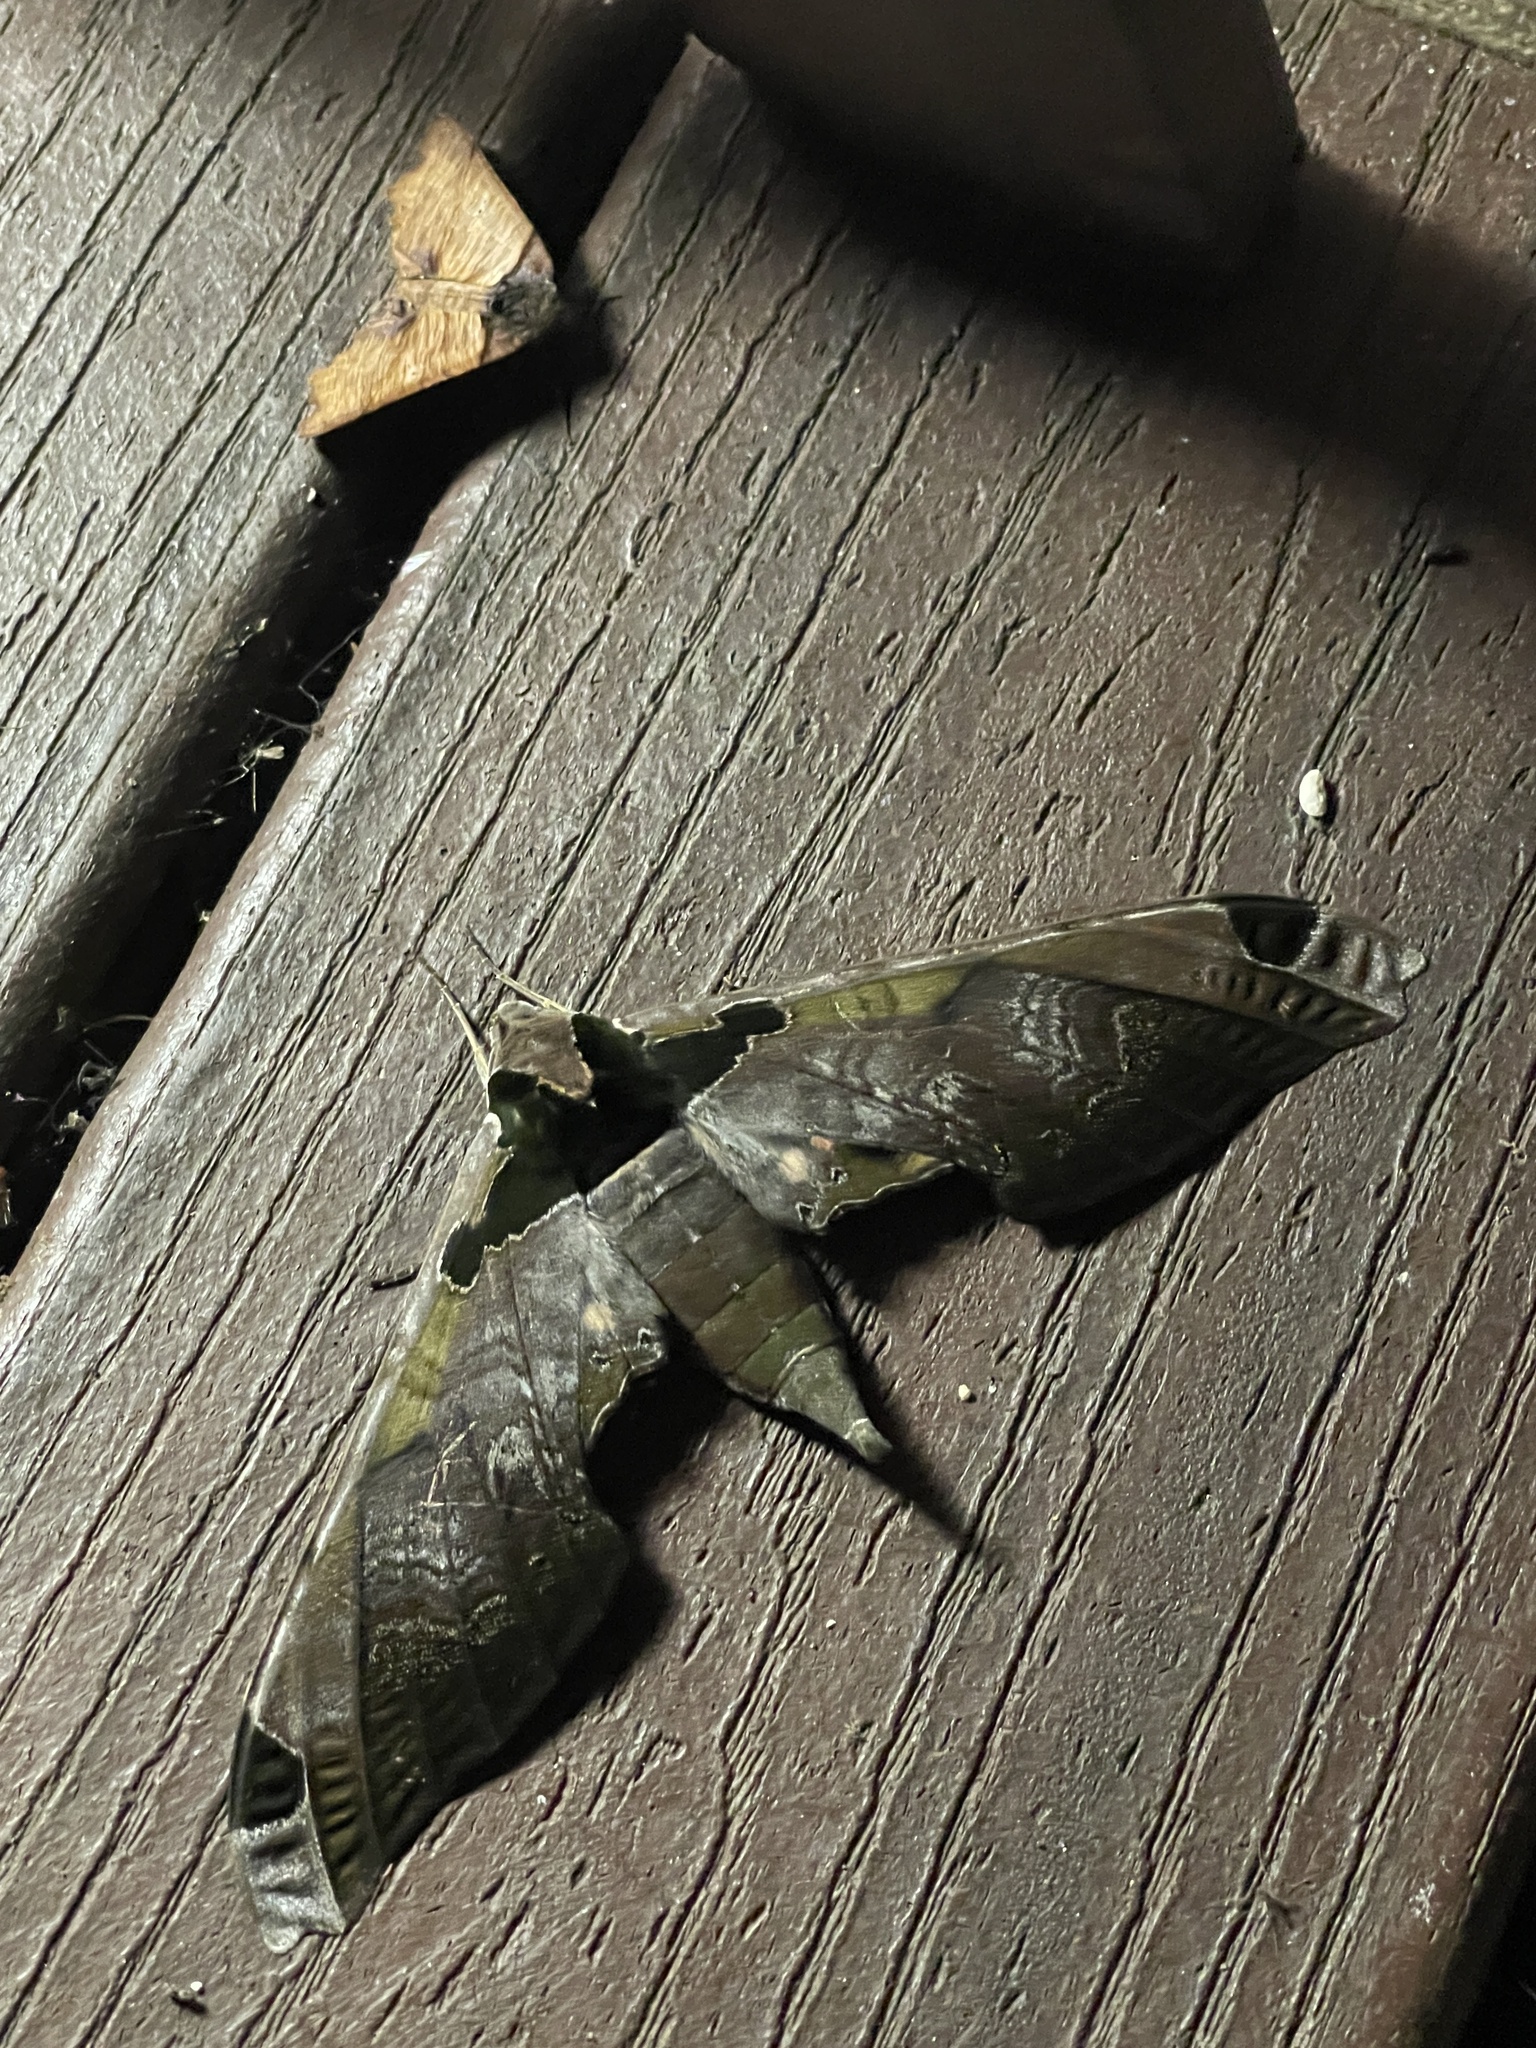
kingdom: Animalia
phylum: Arthropoda
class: Insecta
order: Lepidoptera
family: Sphingidae
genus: Adhemarius
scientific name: Adhemarius ypsilon
